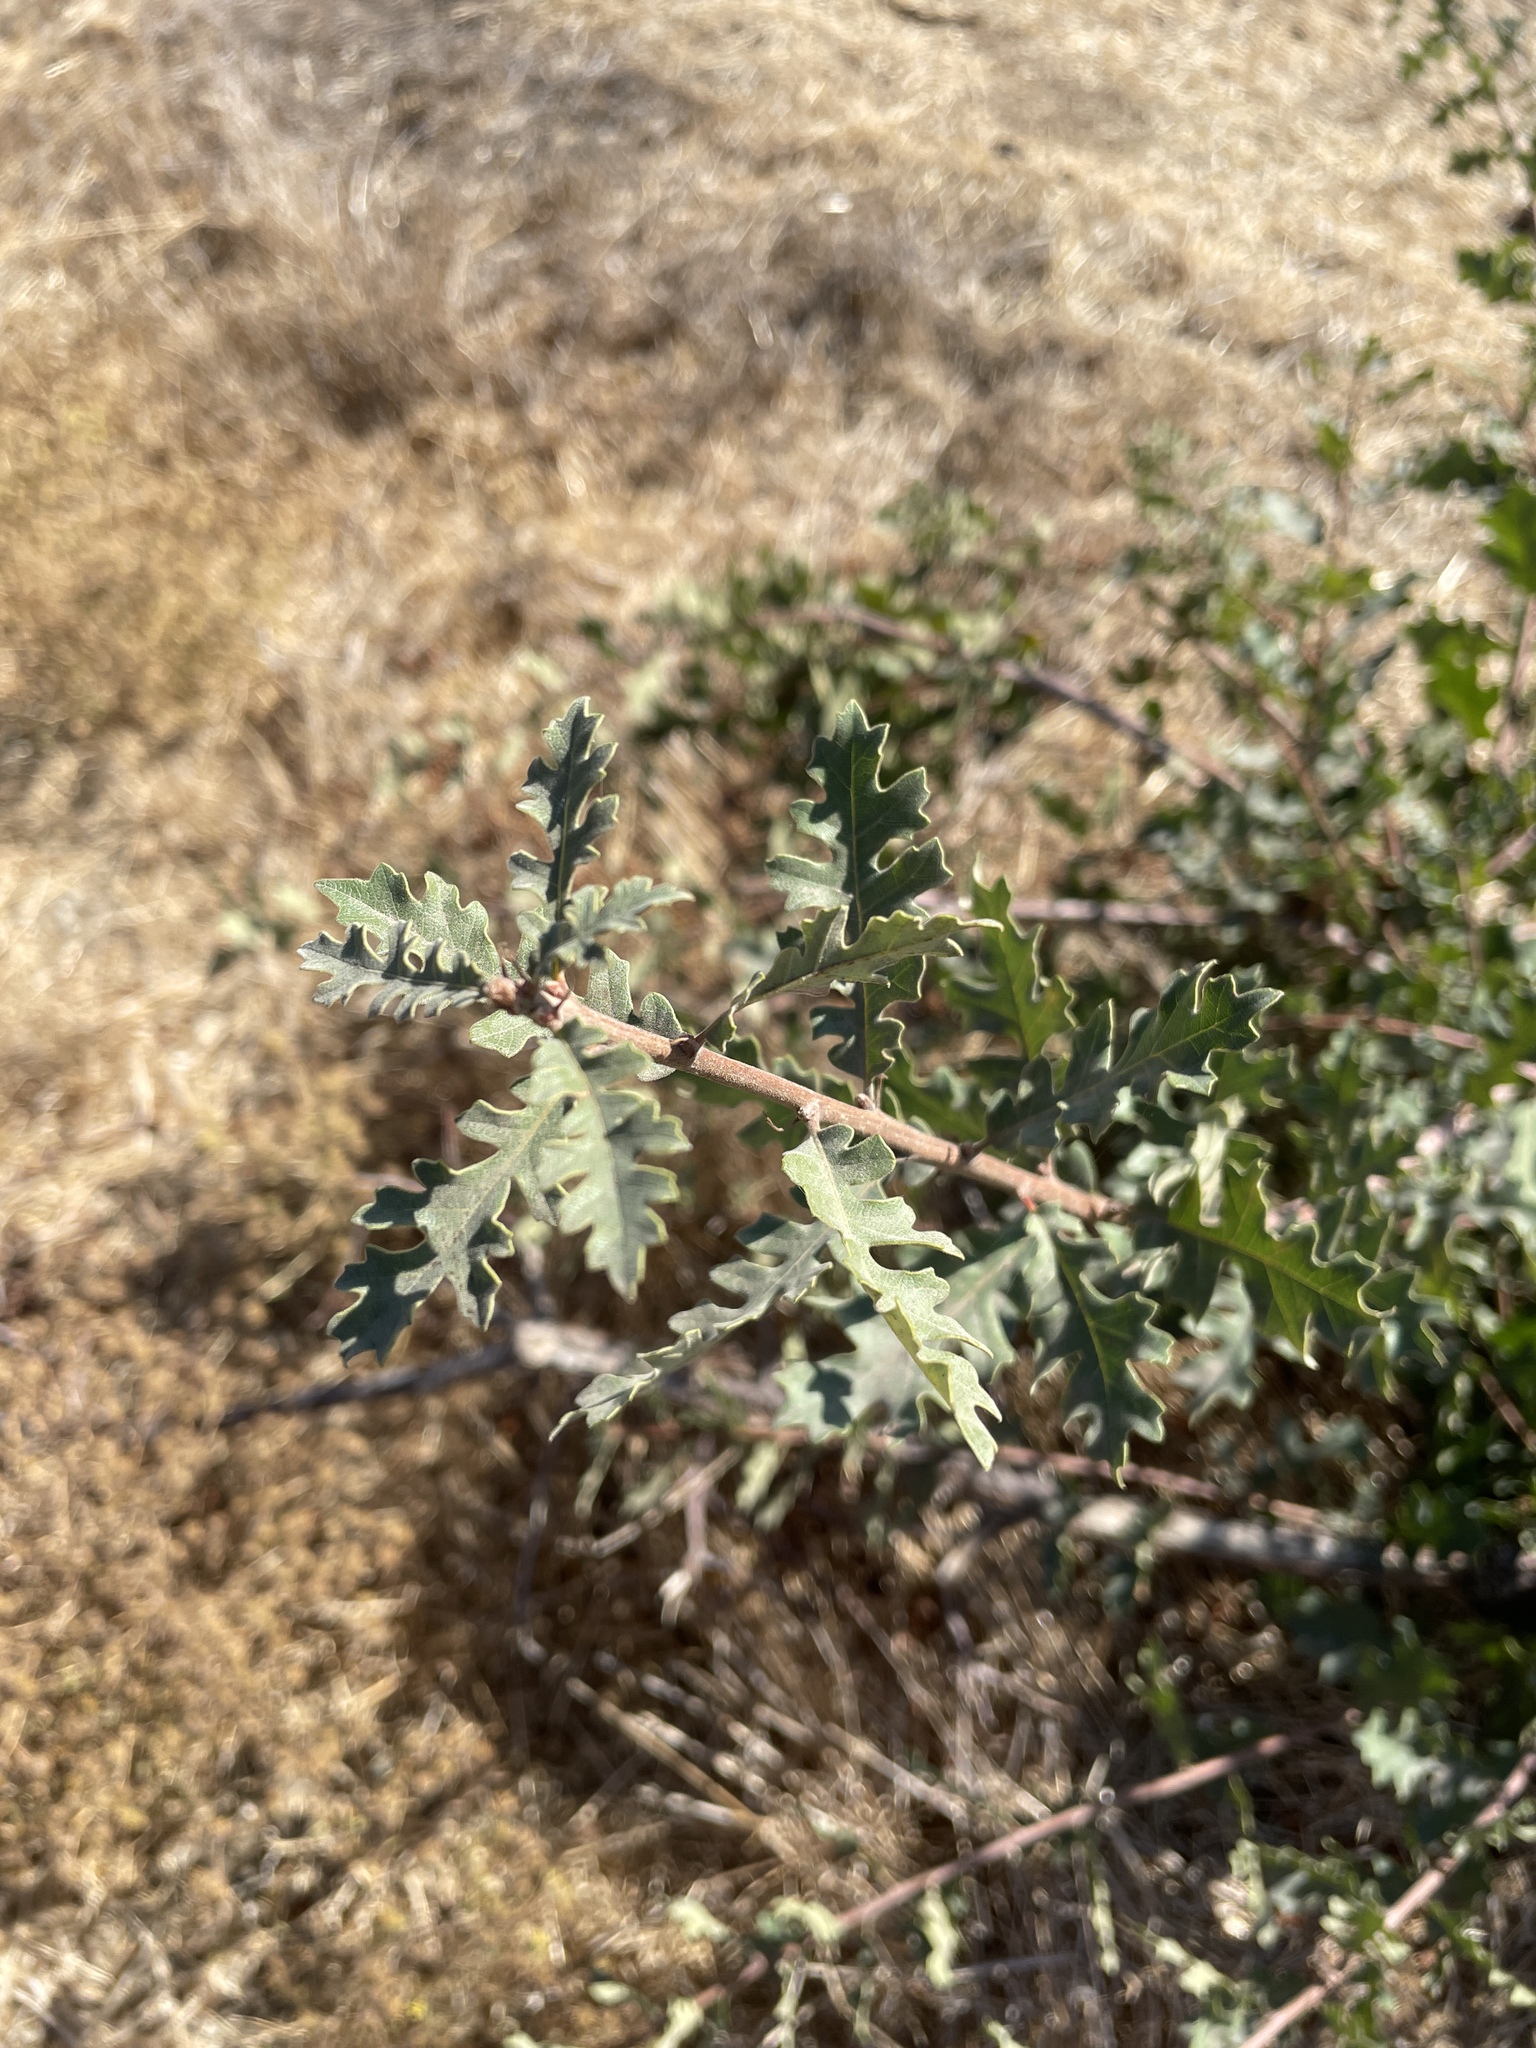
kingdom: Plantae
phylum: Tracheophyta
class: Magnoliopsida
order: Fagales
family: Fagaceae
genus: Quercus
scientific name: Quercus lobata
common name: Valley oak
